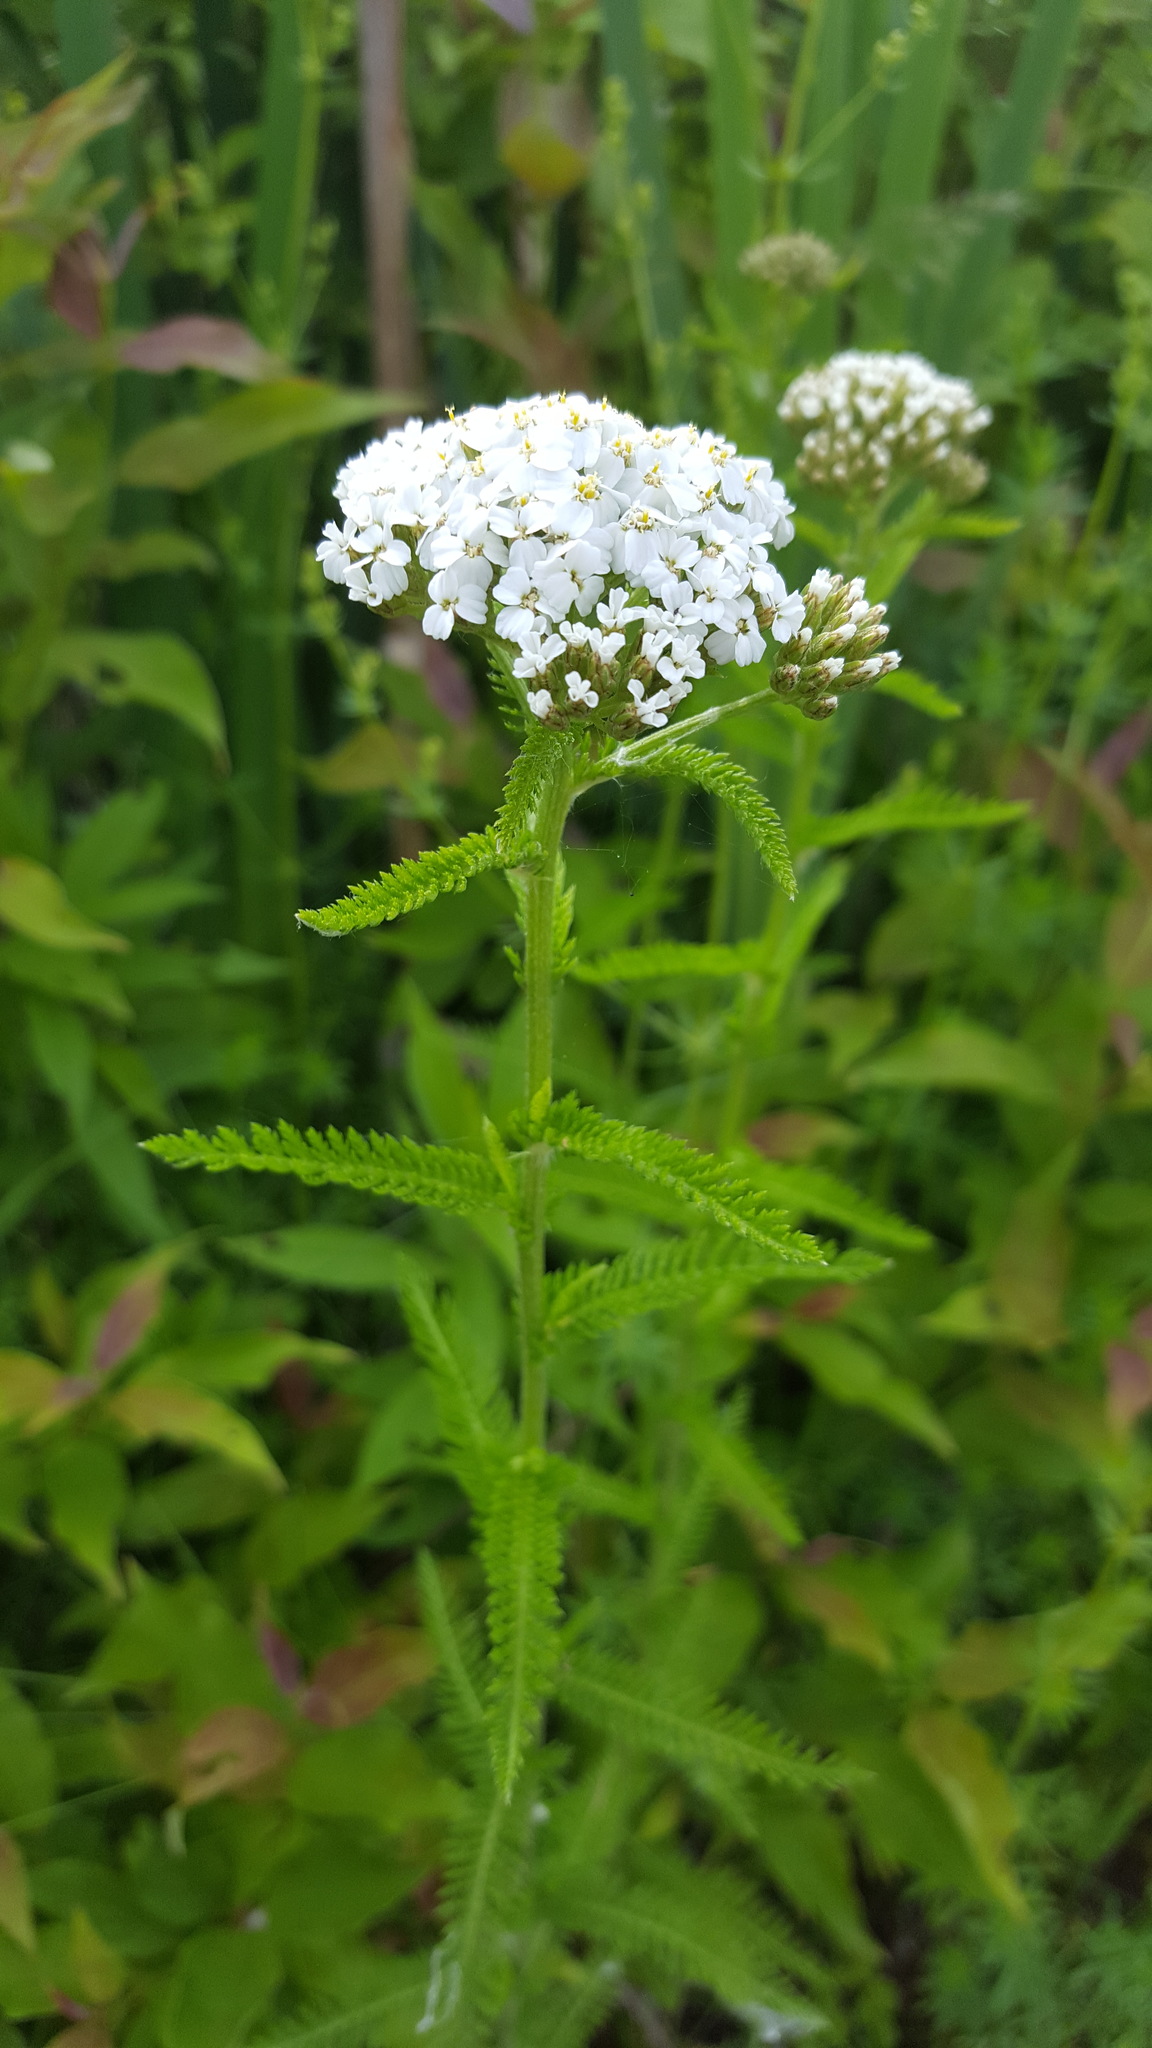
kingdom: Plantae
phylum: Tracheophyta
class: Magnoliopsida
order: Asterales
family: Asteraceae
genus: Achillea
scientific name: Achillea millefolium
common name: Yarrow
